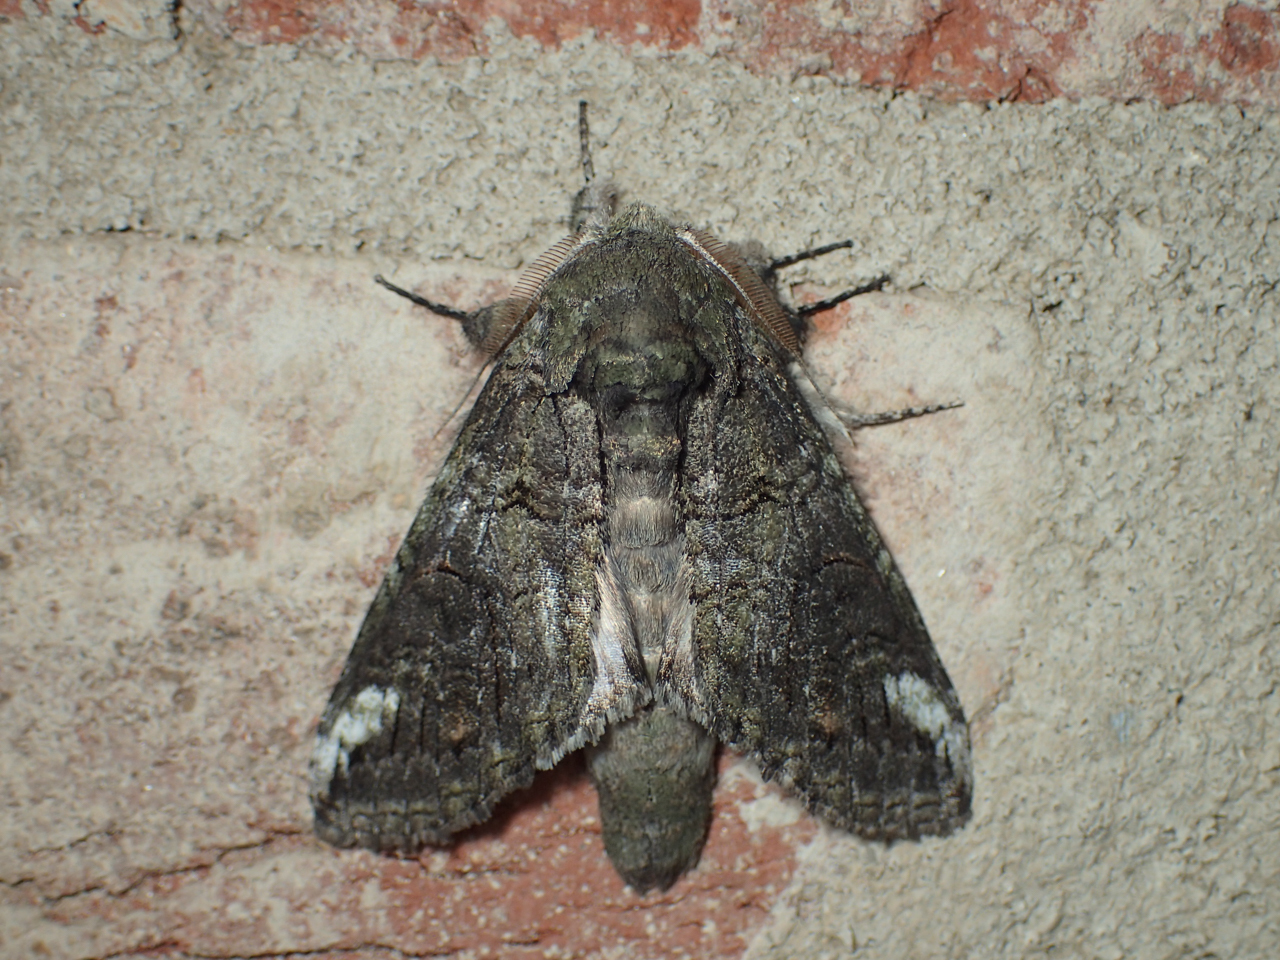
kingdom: Animalia
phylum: Arthropoda
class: Insecta
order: Lepidoptera
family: Notodontidae
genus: Heterocampa
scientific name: Heterocampa obliqua
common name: Oblique heterocampa
